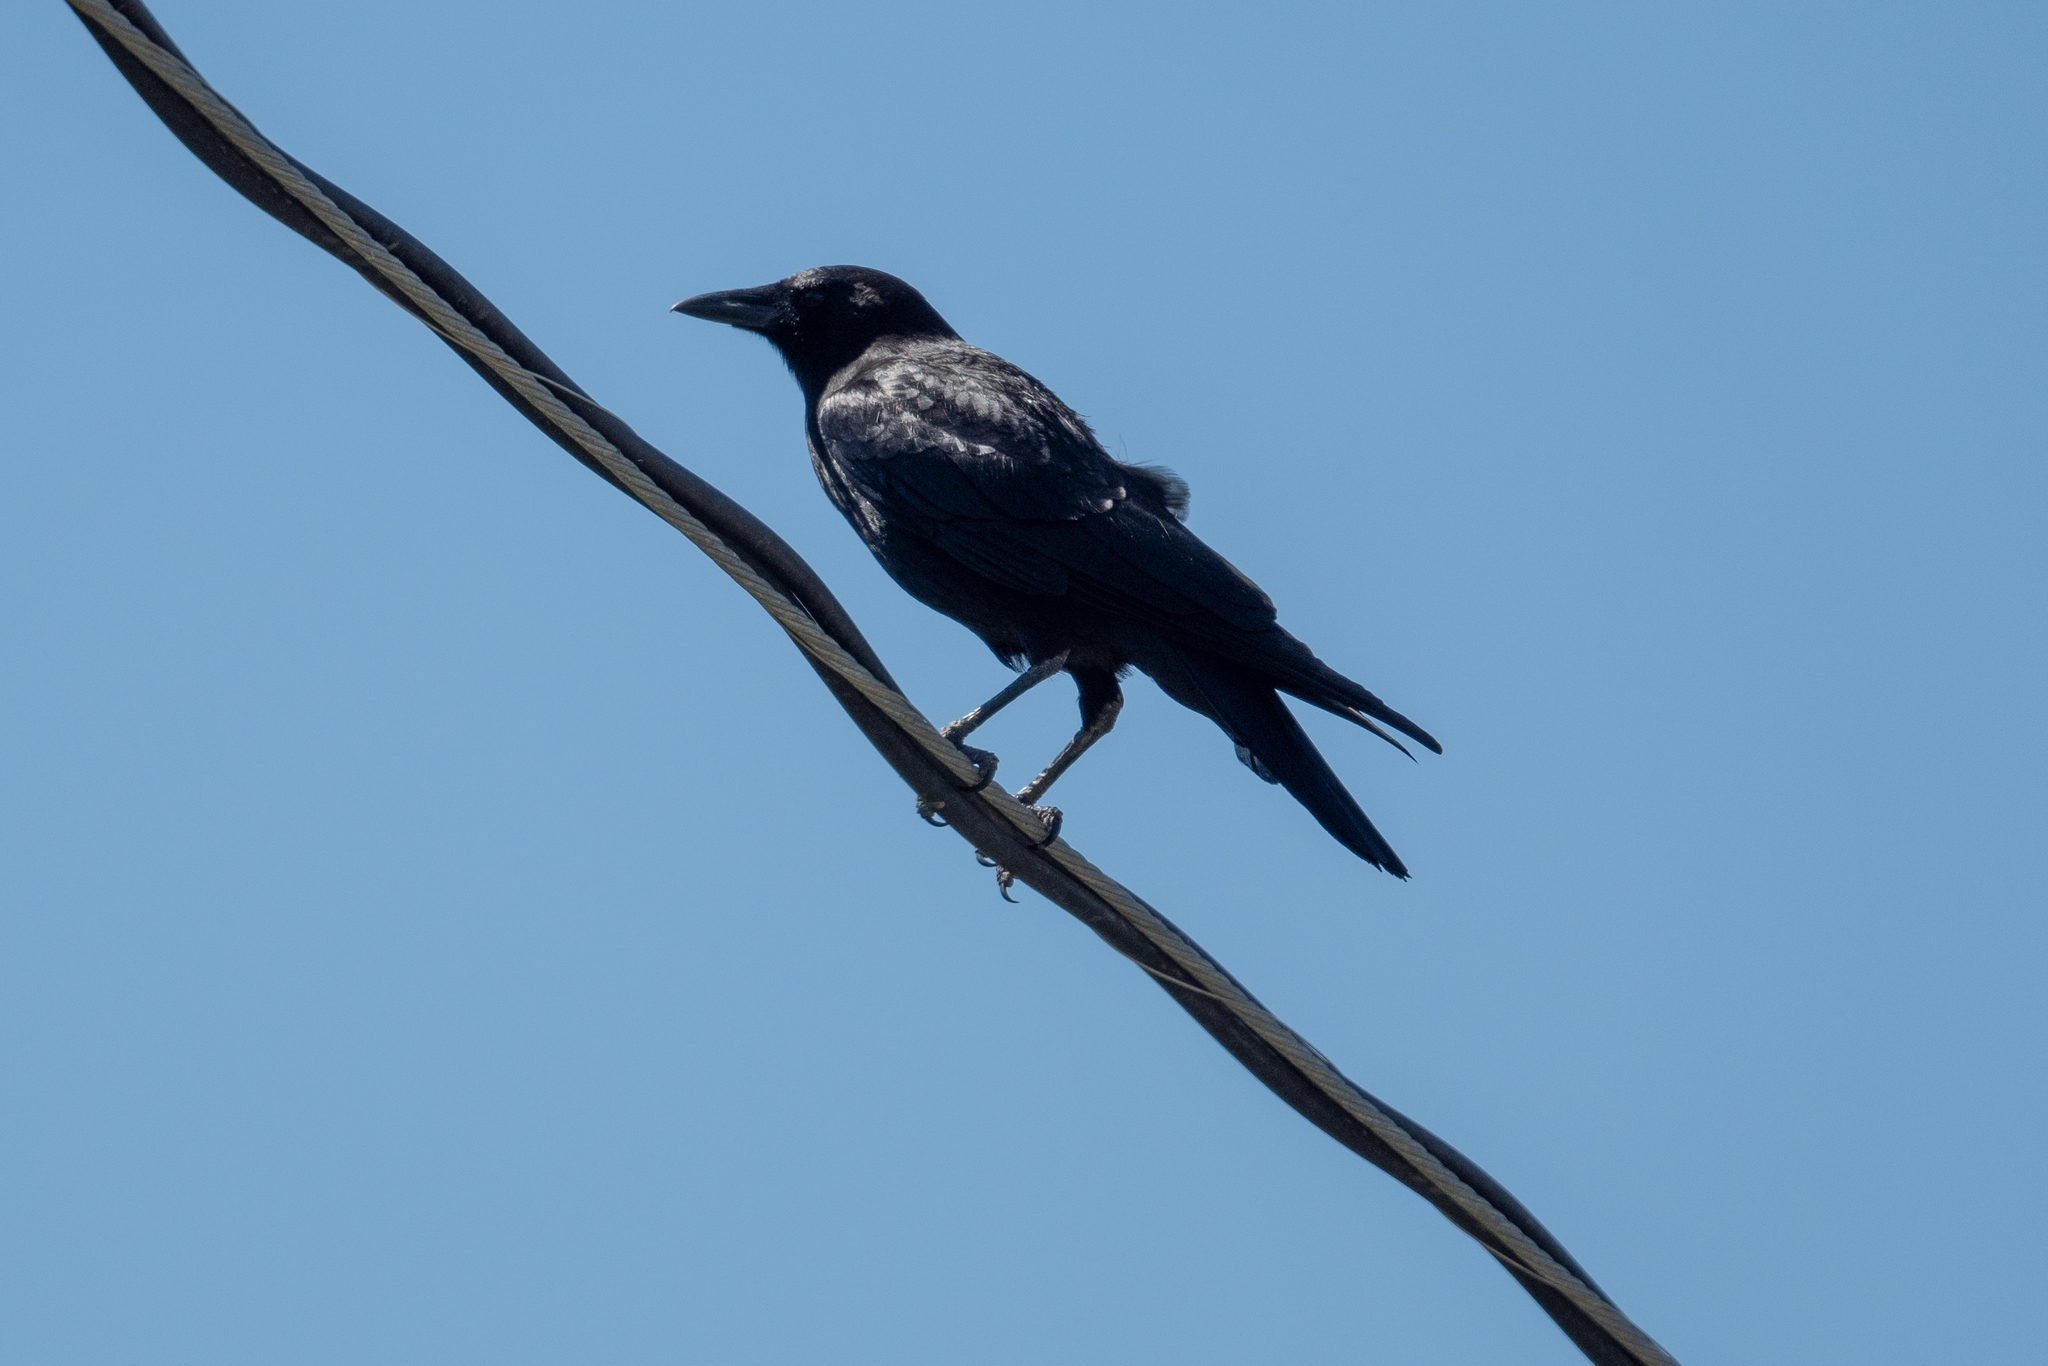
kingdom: Animalia
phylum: Chordata
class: Aves
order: Passeriformes
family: Corvidae
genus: Corvus
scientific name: Corvus brachyrhynchos
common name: American crow
